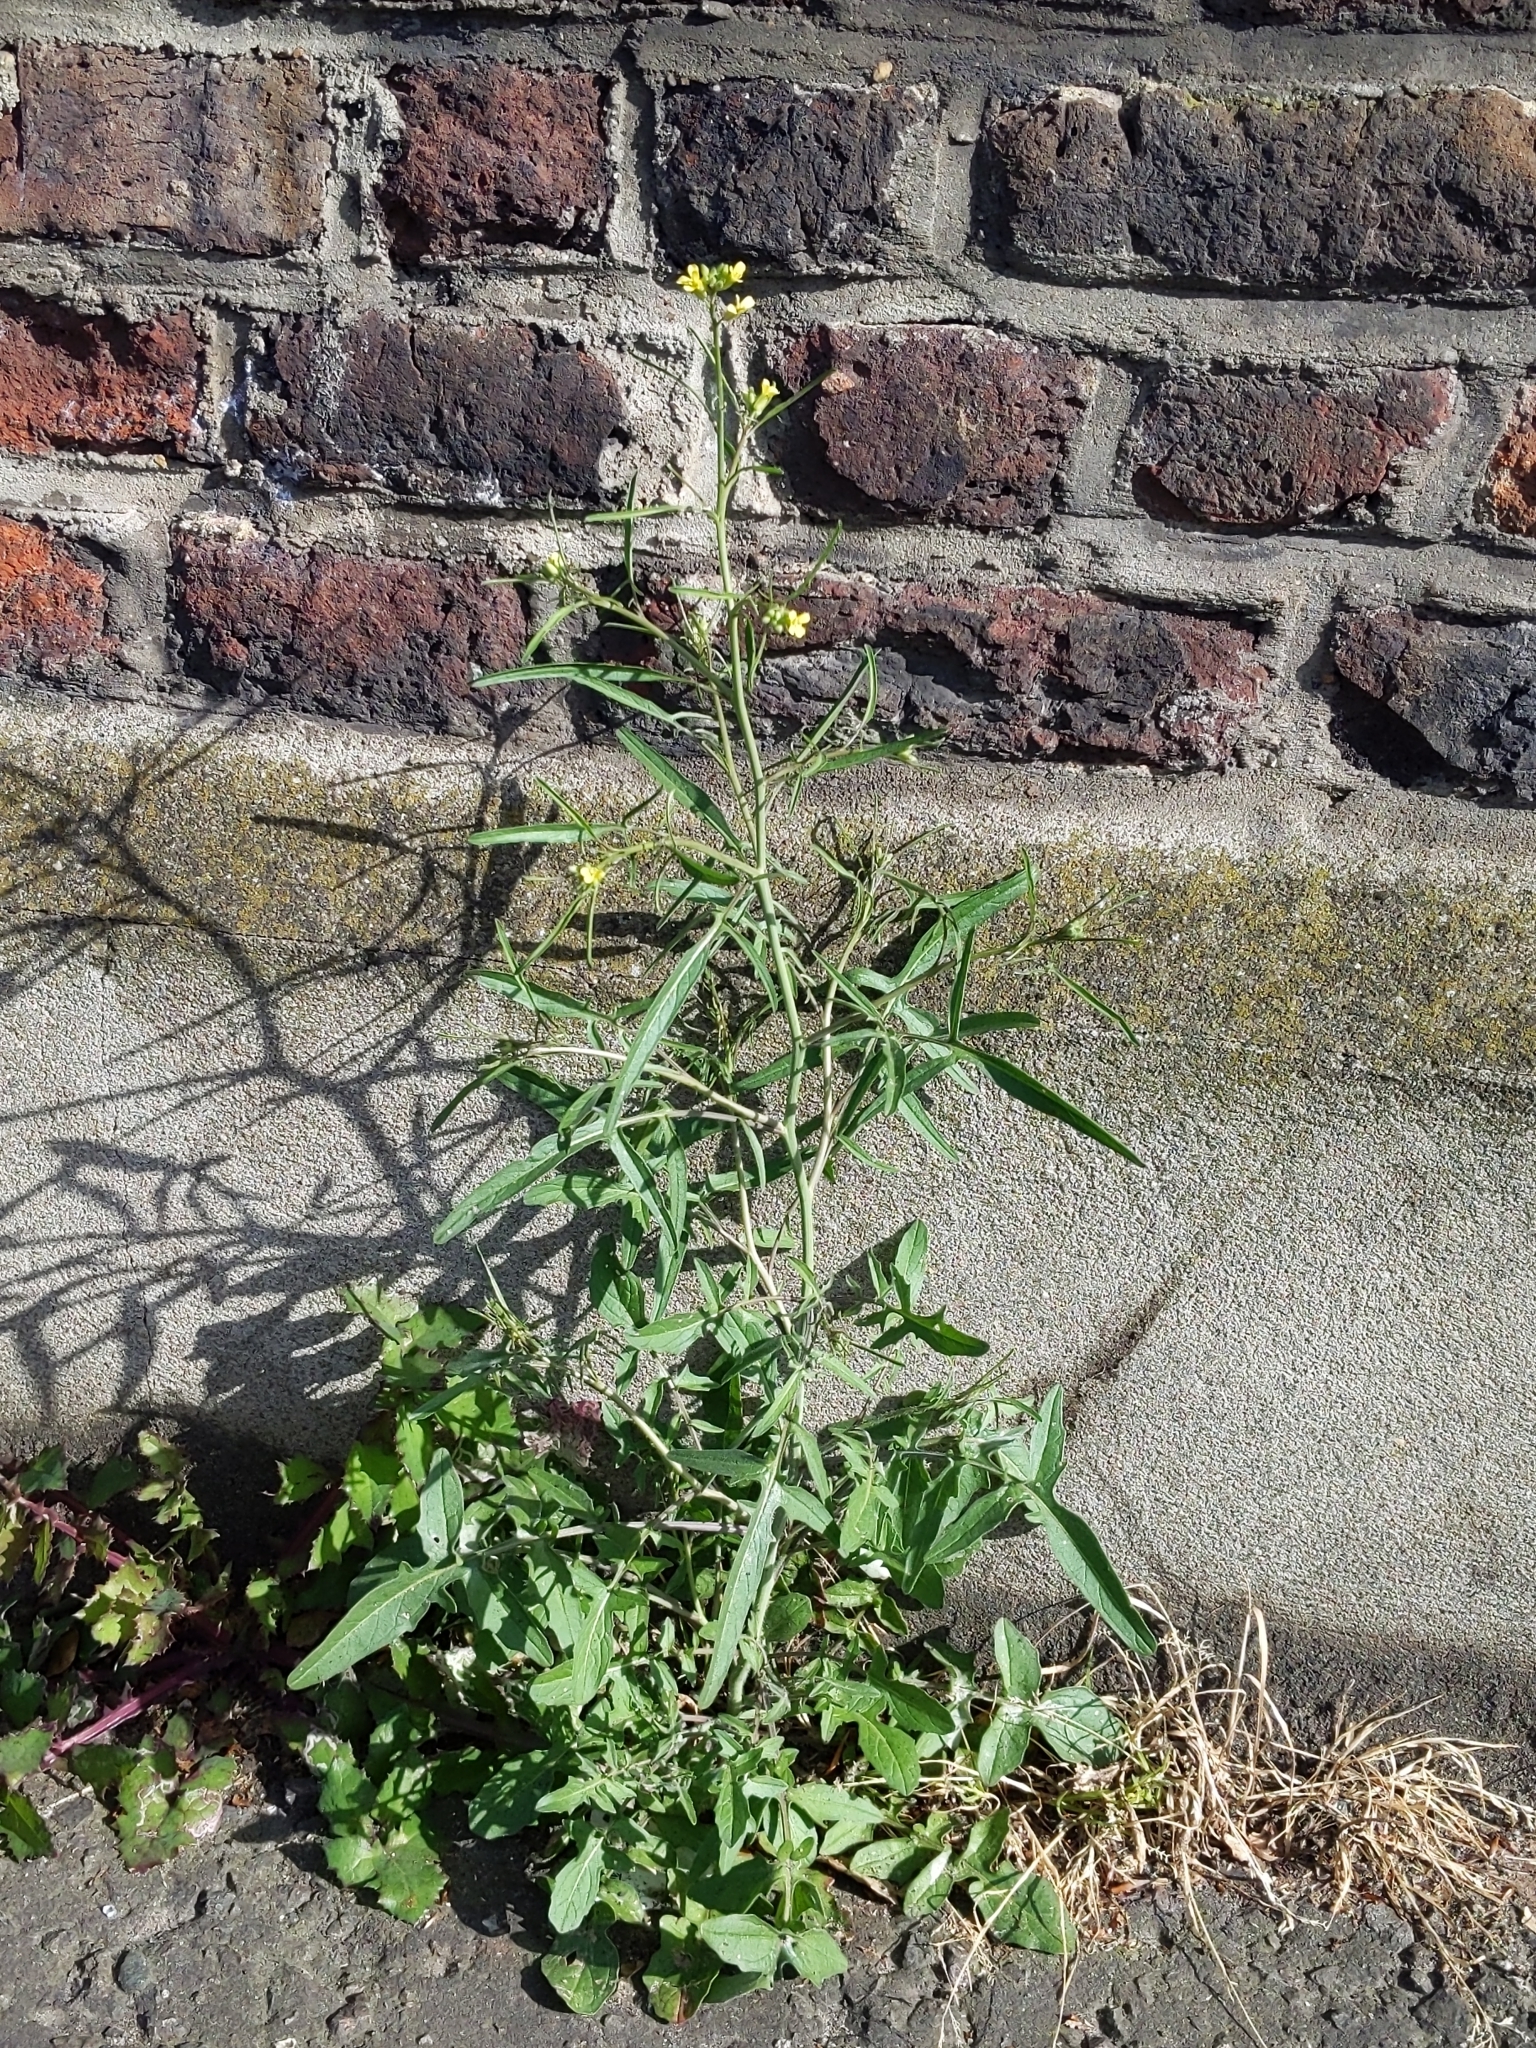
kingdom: Plantae
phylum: Tracheophyta
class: Magnoliopsida
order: Brassicales
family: Brassicaceae
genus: Sisymbrium
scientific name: Sisymbrium orientale
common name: Eastern rocket
